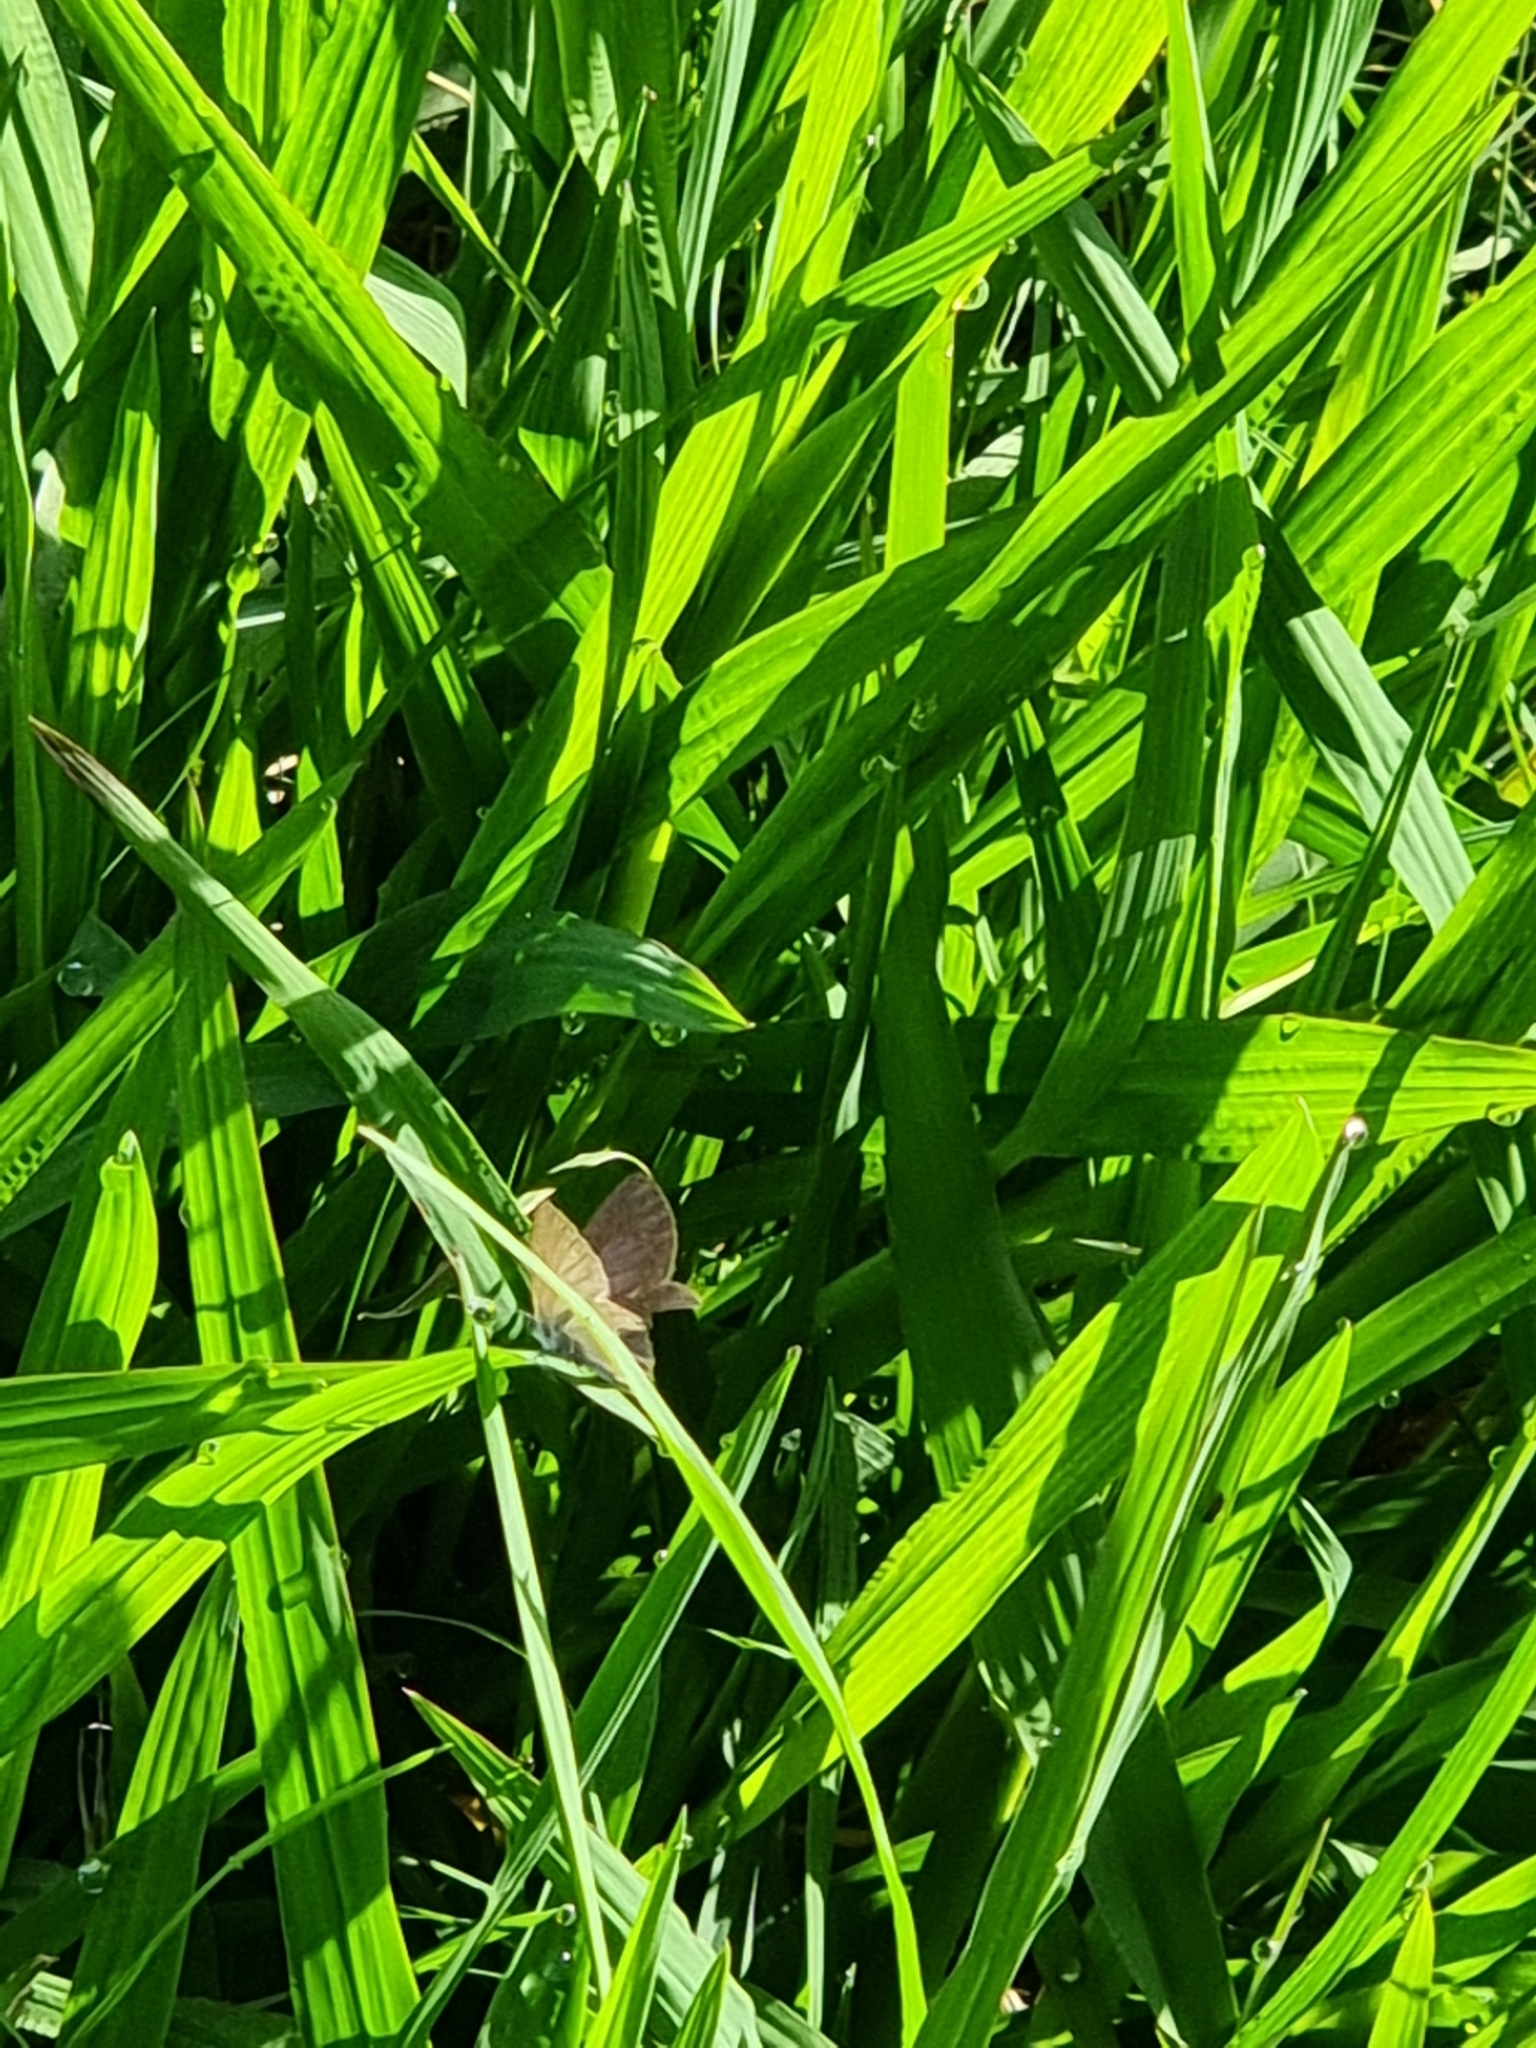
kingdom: Animalia
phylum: Arthropoda
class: Insecta
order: Lepidoptera
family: Lycaenidae
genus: Zizina
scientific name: Zizina otis
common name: Lesser grass blue
